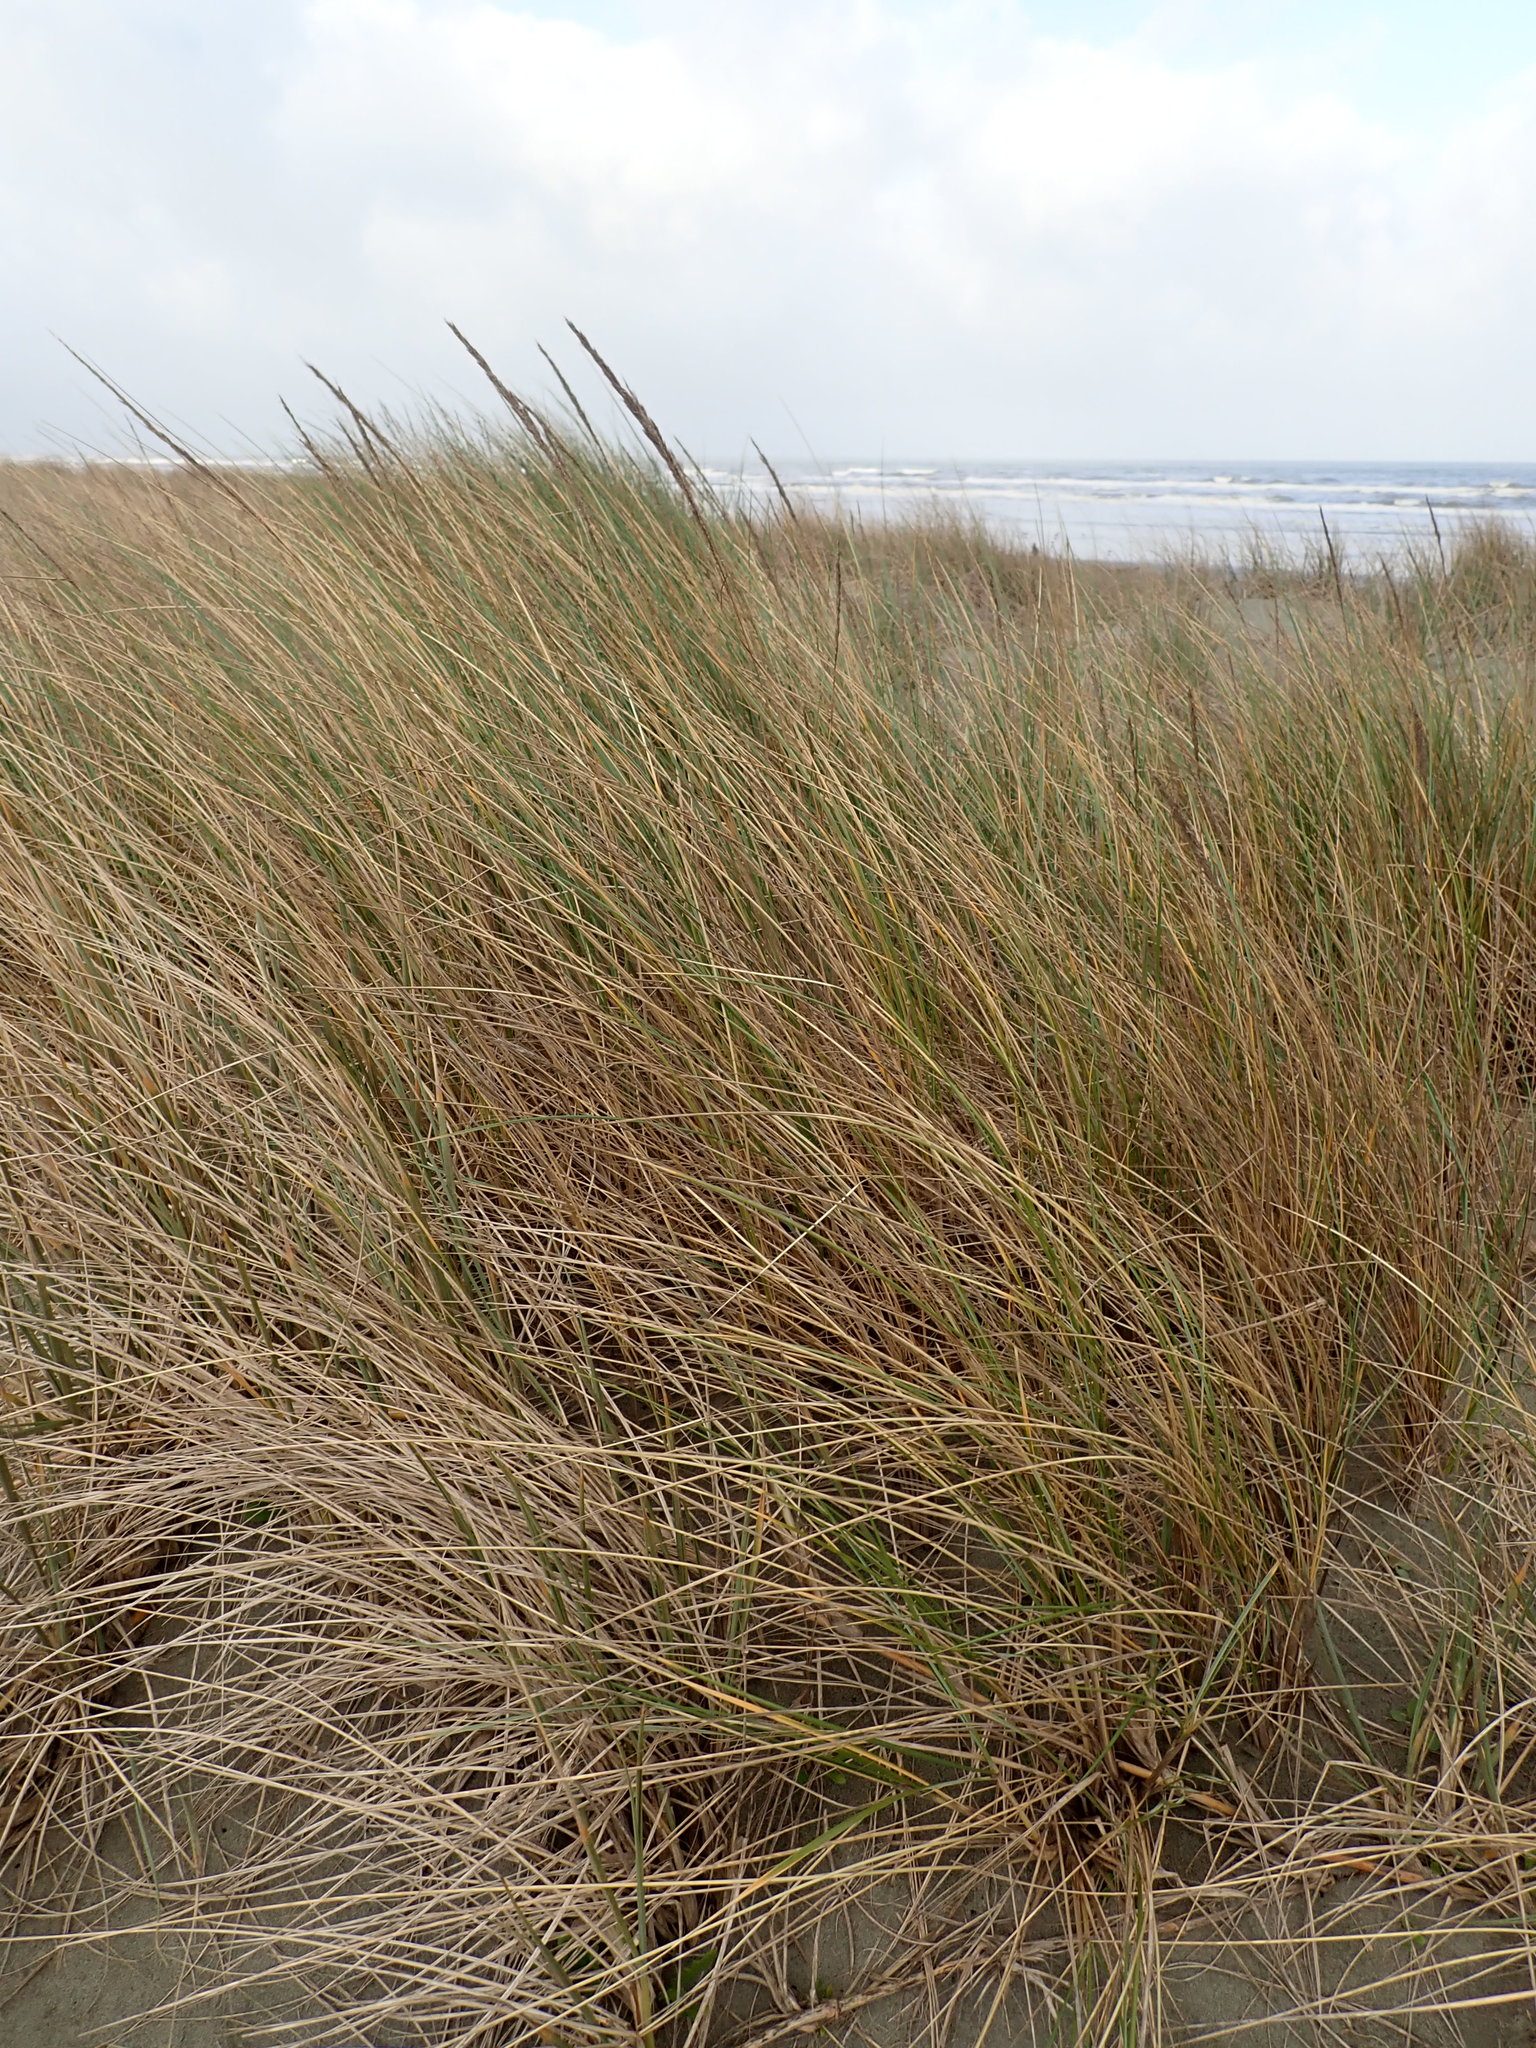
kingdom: Plantae
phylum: Tracheophyta
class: Liliopsida
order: Poales
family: Poaceae
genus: Calamagrostis
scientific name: Calamagrostis arenaria
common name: European beachgrass
